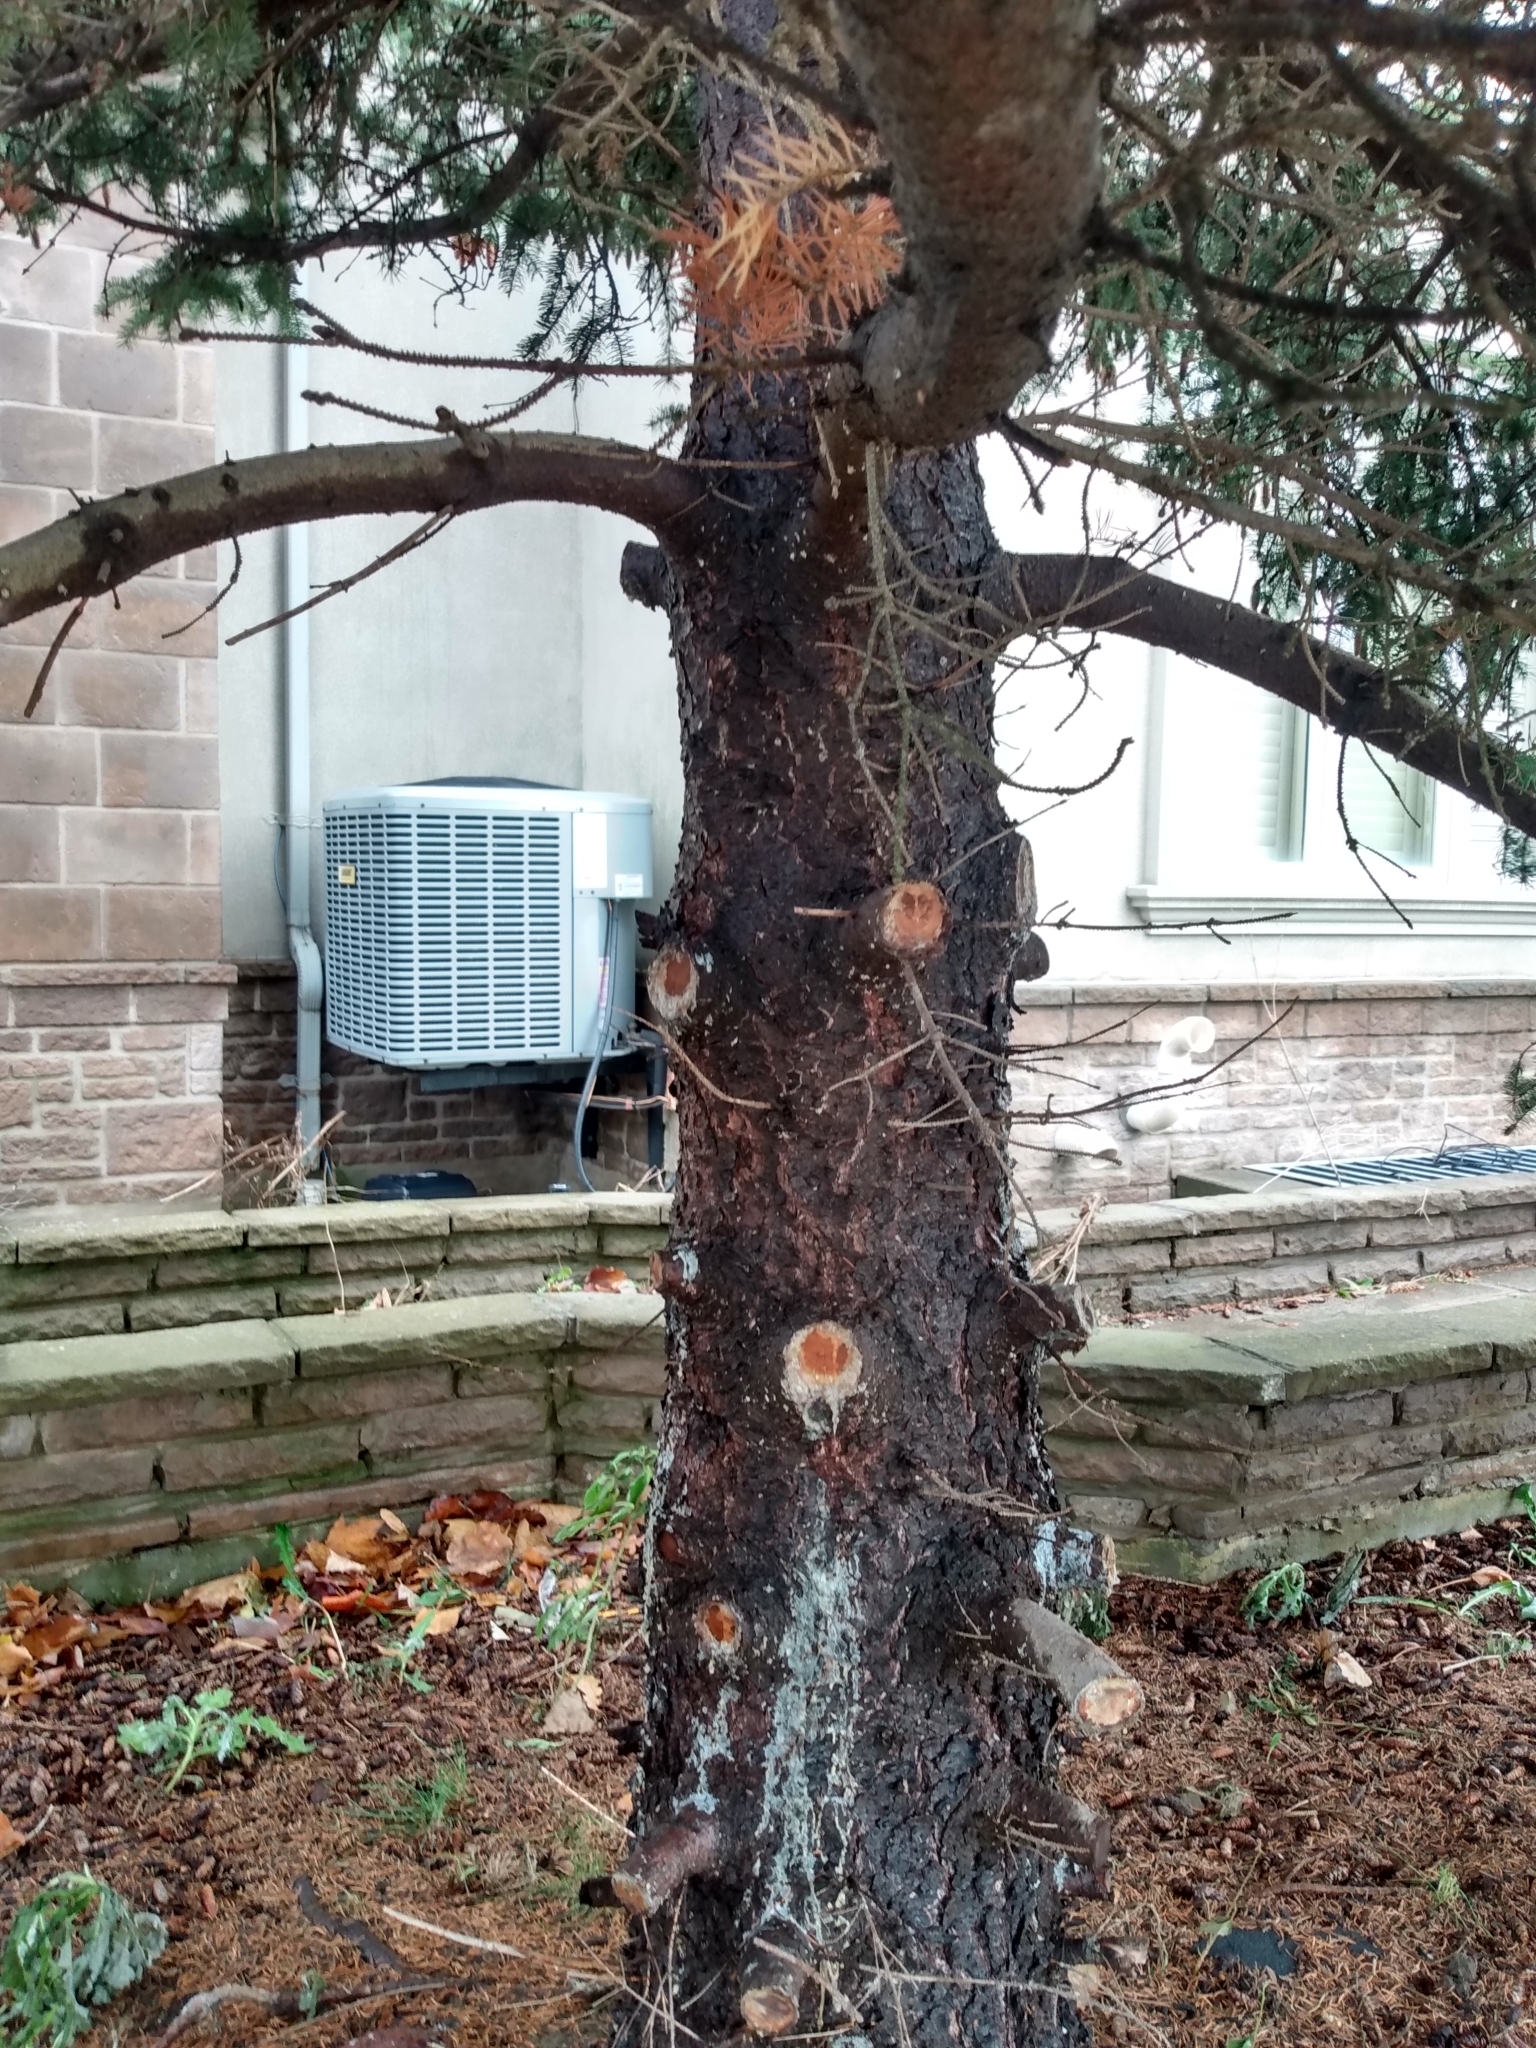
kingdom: Plantae
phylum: Tracheophyta
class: Pinopsida
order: Pinales
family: Pinaceae
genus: Picea
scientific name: Picea glauca
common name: White spruce
